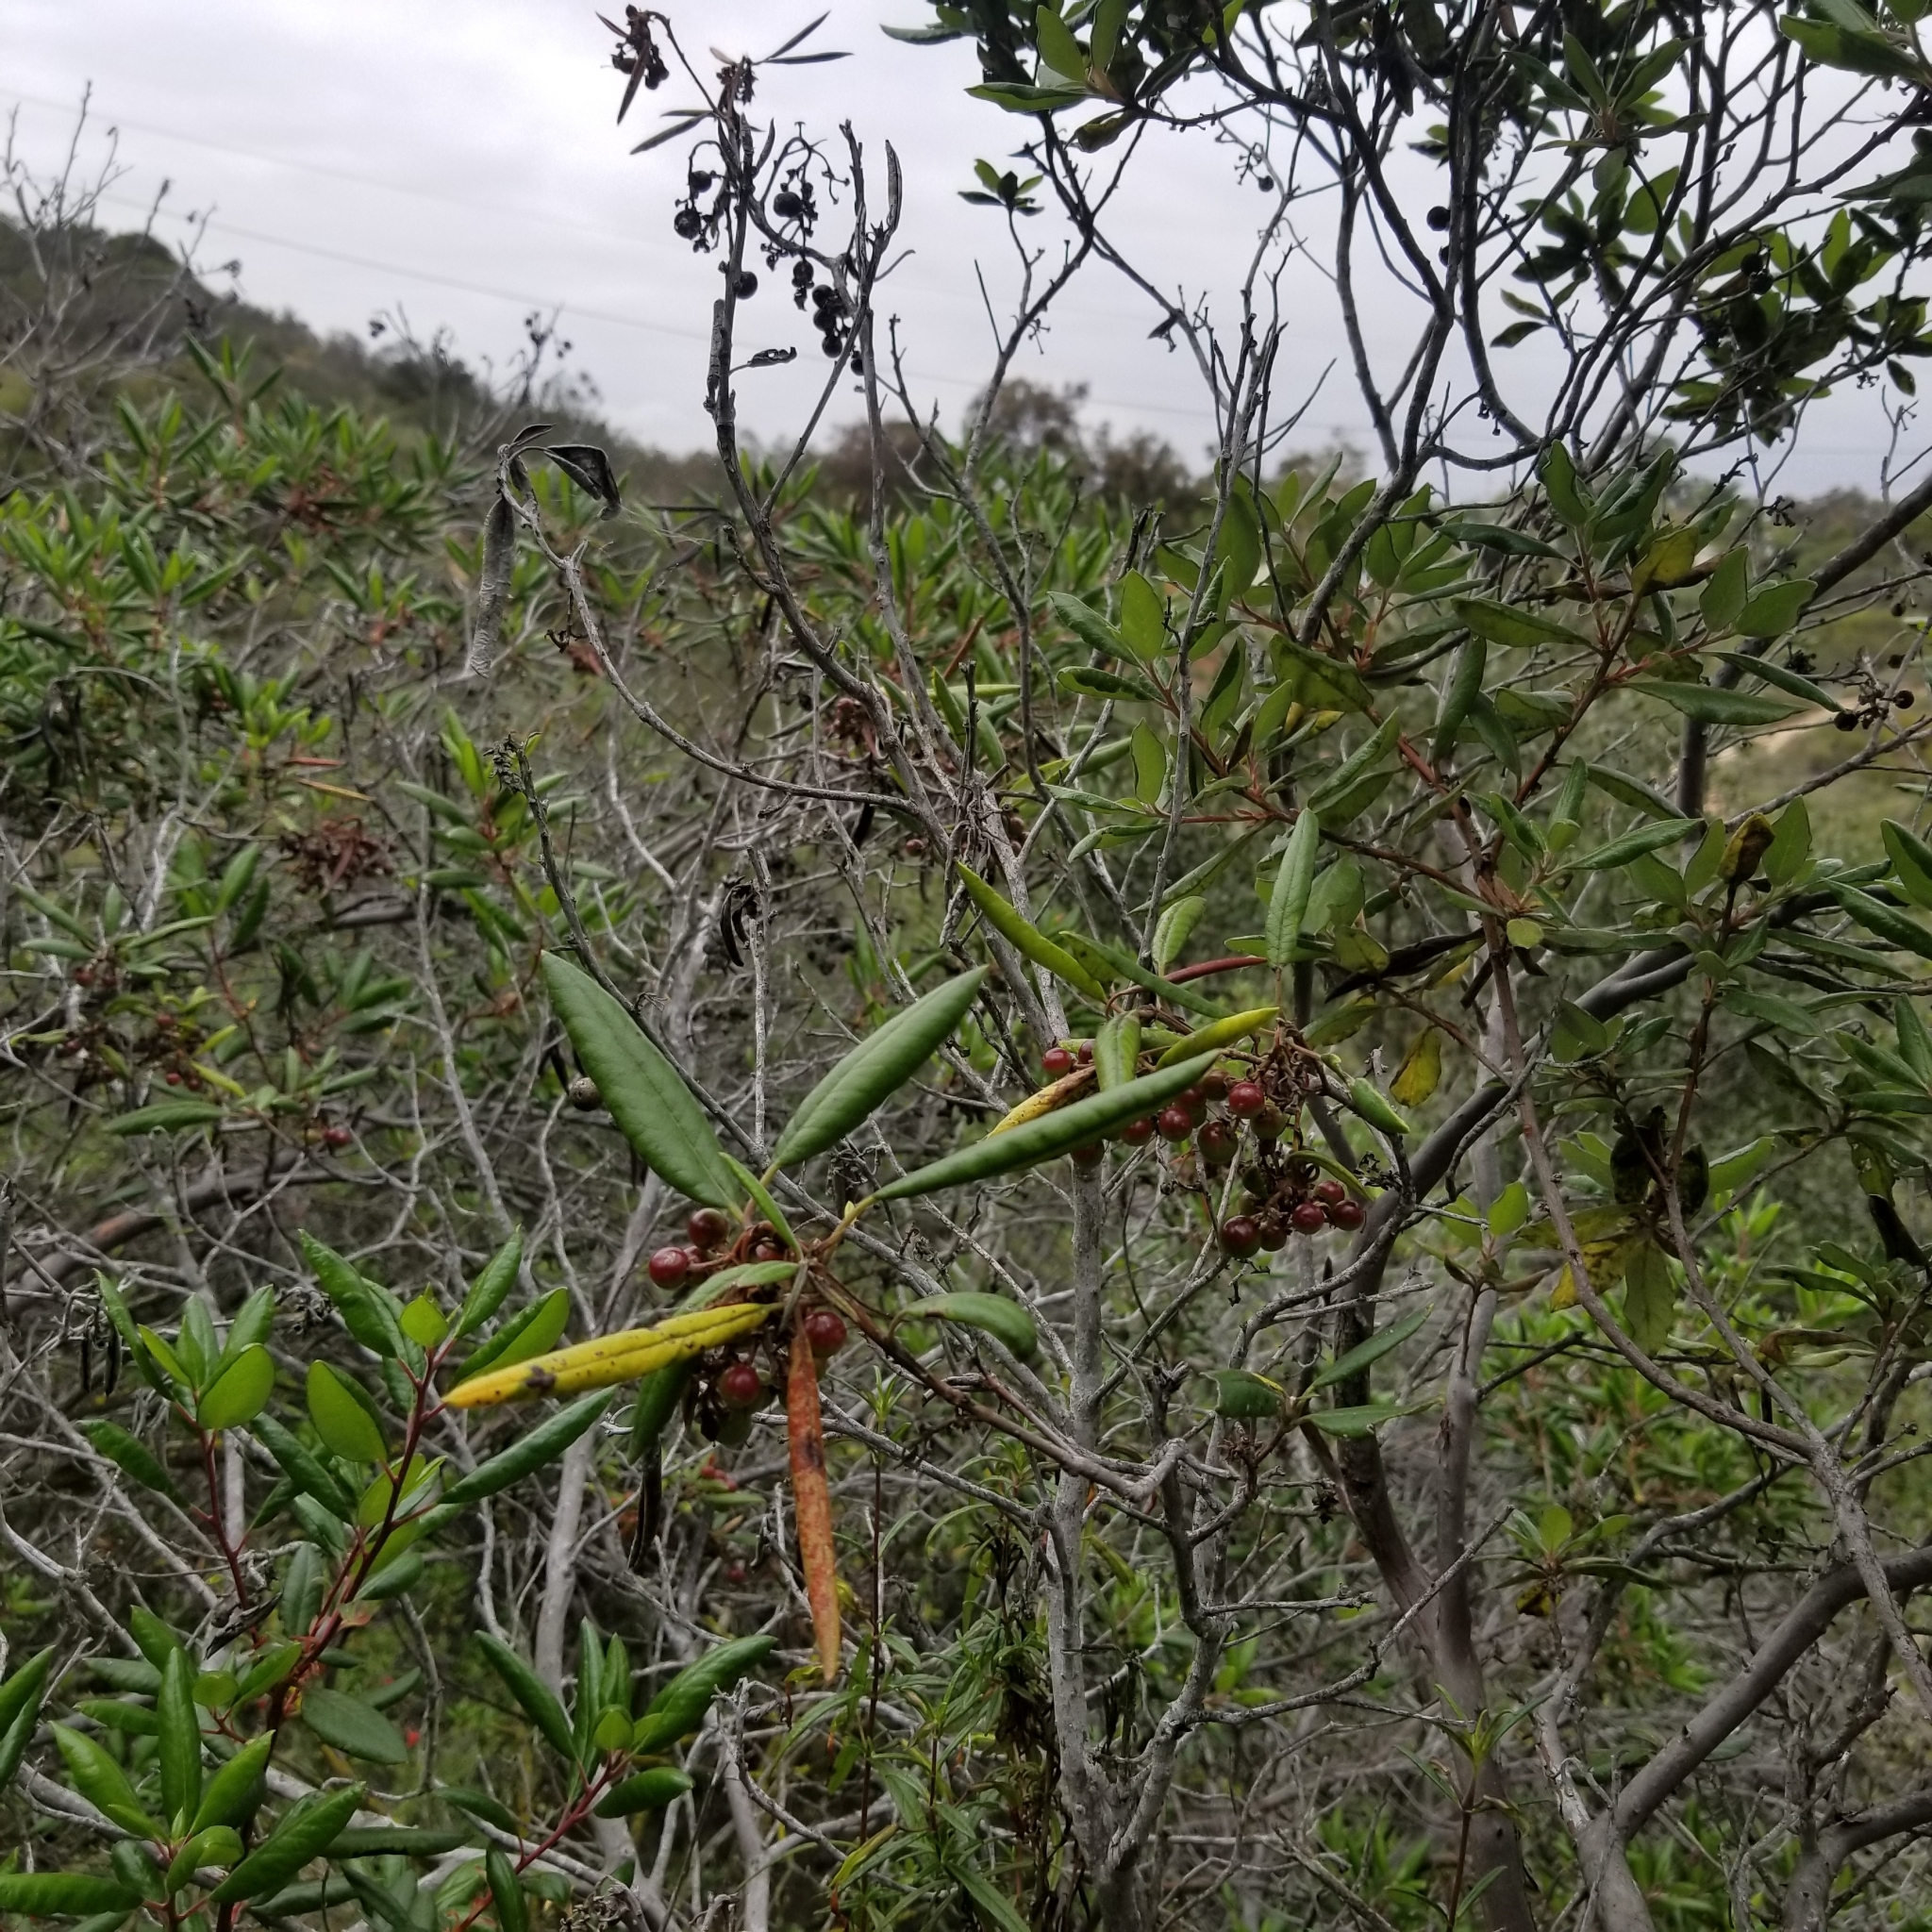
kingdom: Plantae
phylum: Tracheophyta
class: Magnoliopsida
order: Ericales
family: Ericaceae
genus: Arctostaphylos
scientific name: Arctostaphylos bicolor
